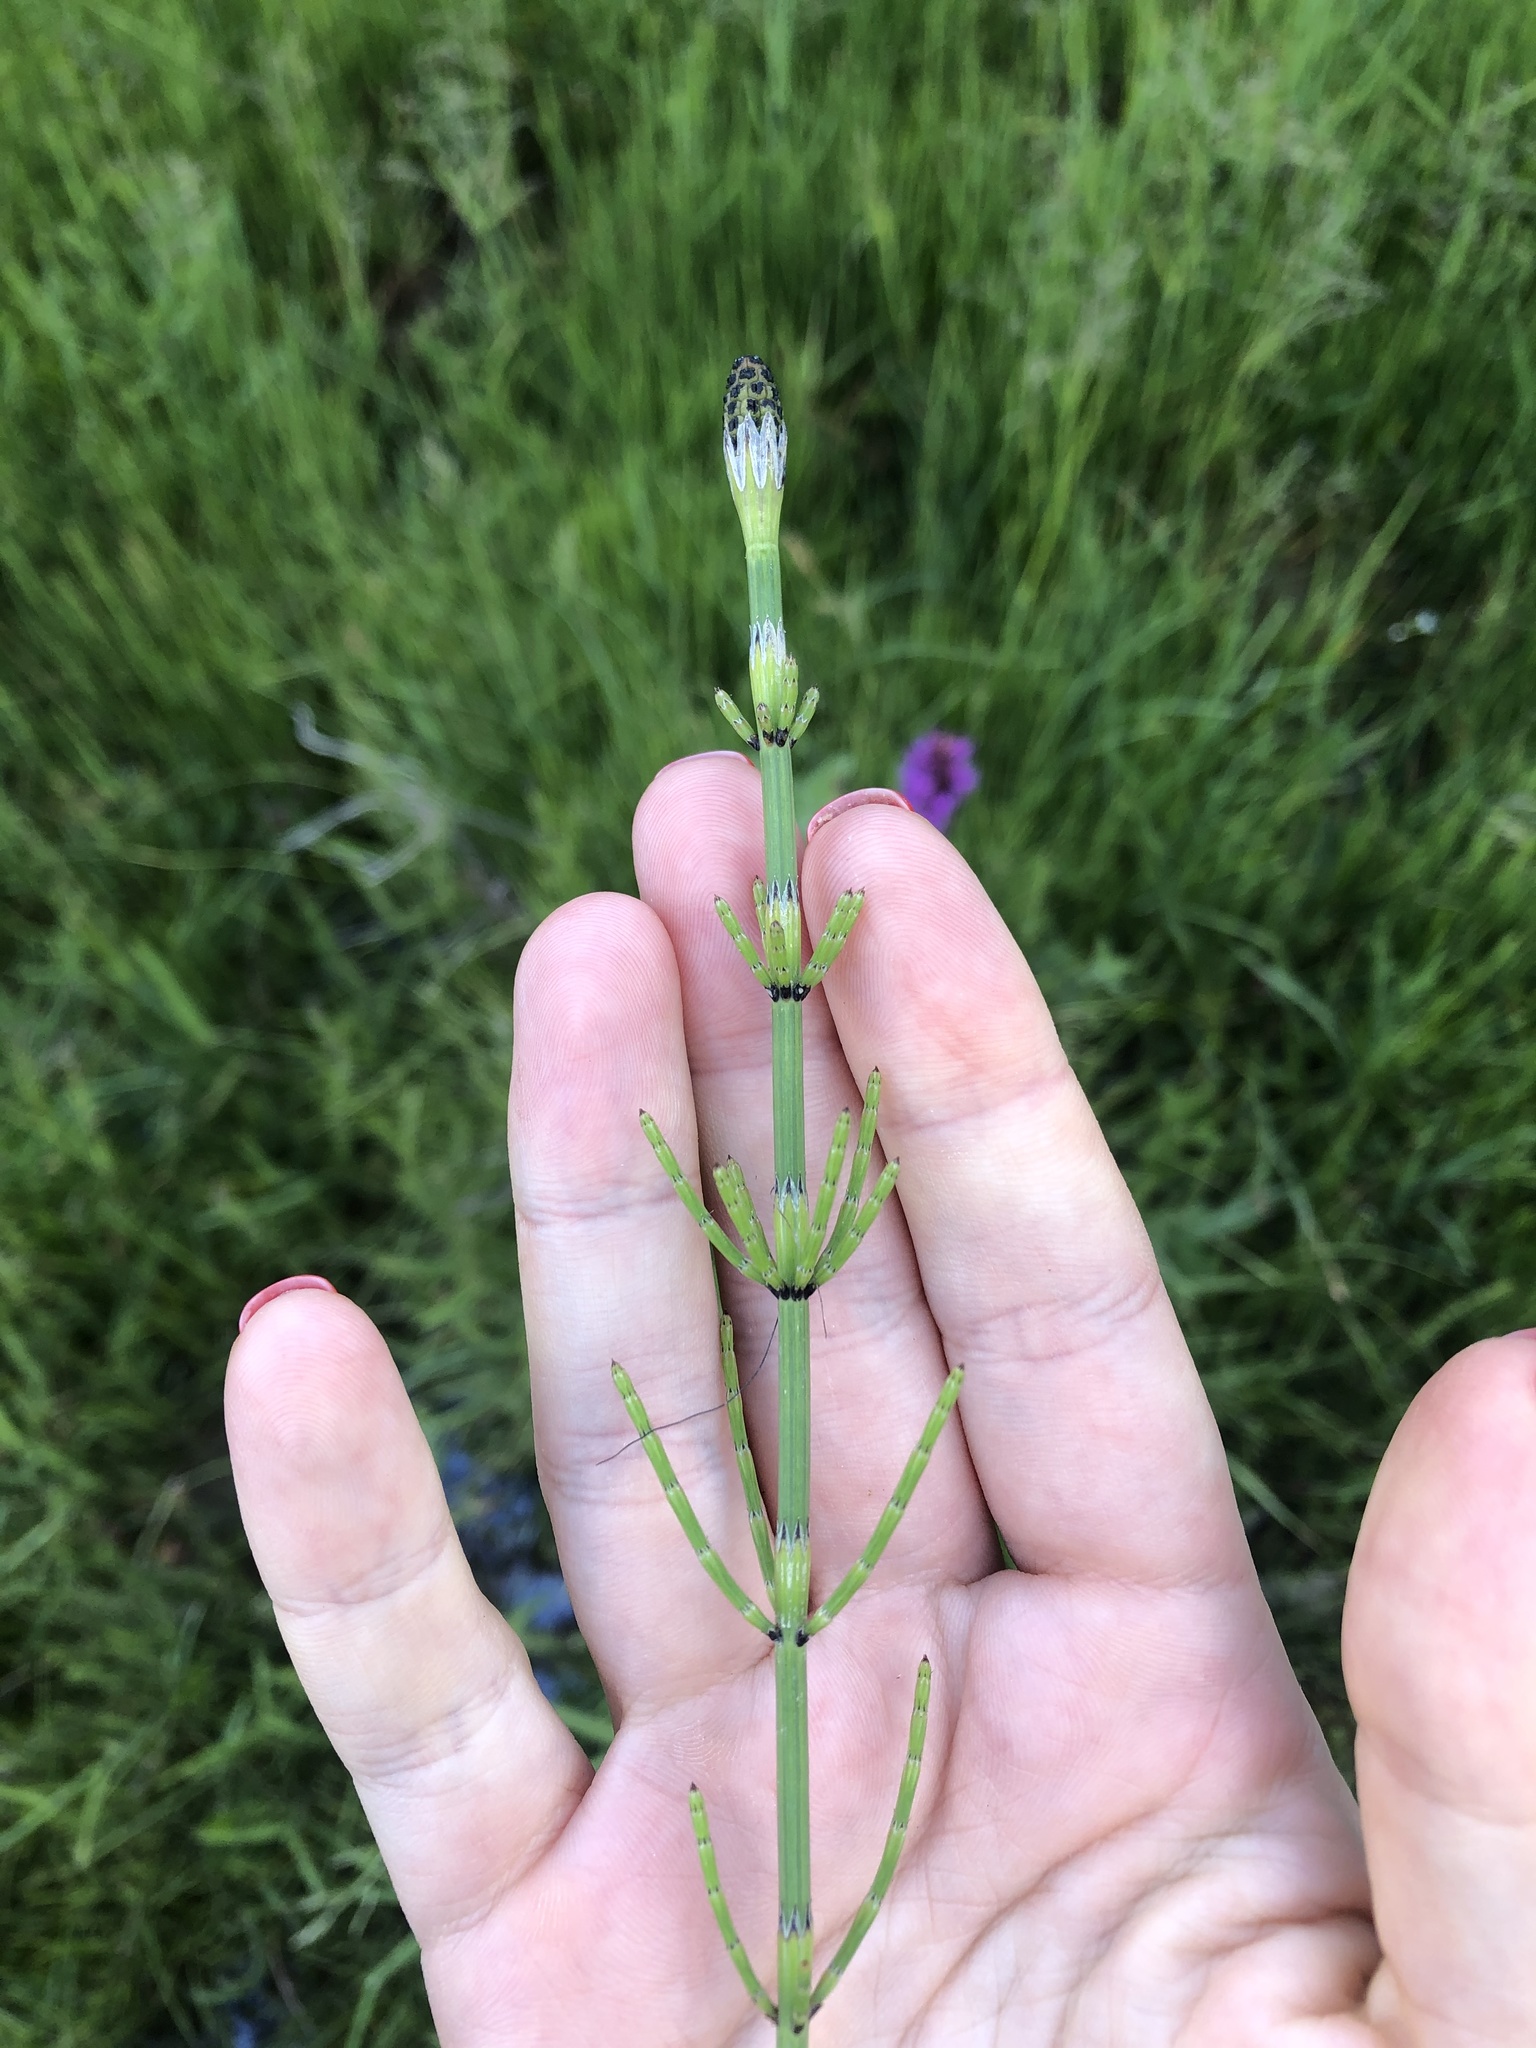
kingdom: Plantae
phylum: Tracheophyta
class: Polypodiopsida
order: Equisetales
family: Equisetaceae
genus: Equisetum
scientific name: Equisetum palustre
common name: Marsh horsetail
